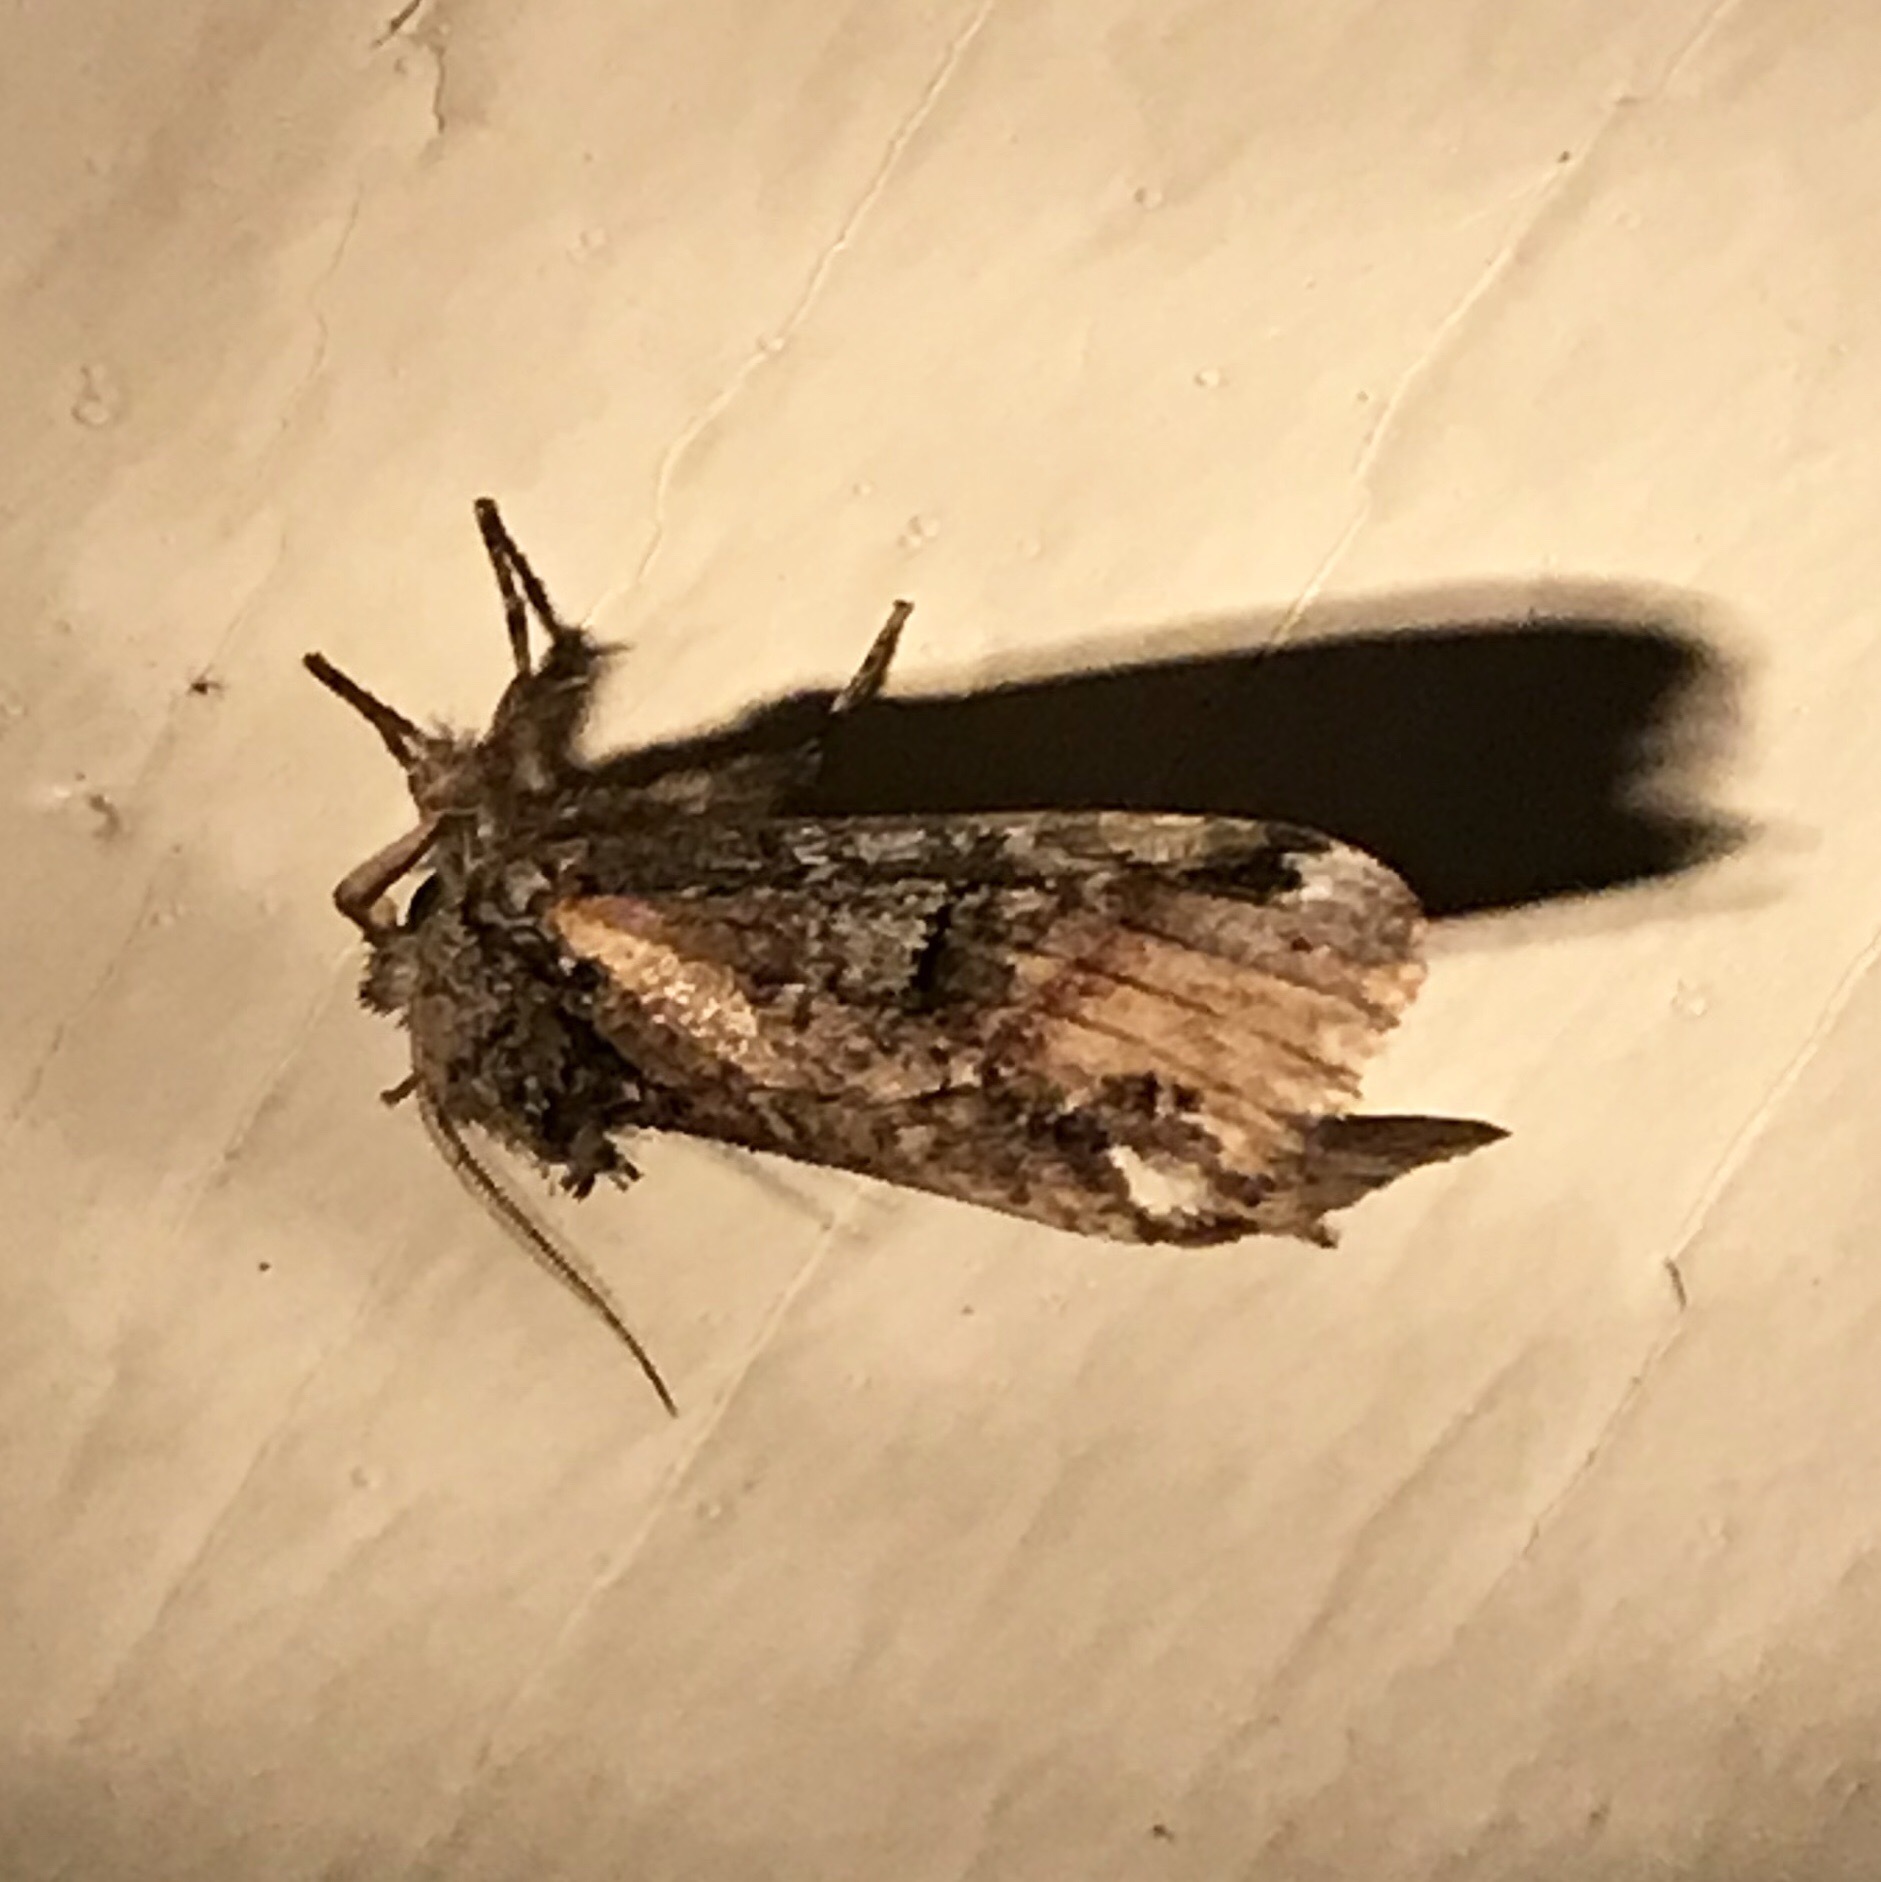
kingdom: Animalia
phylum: Arthropoda
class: Insecta
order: Lepidoptera
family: Notodontidae
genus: Schizura
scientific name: Schizura
